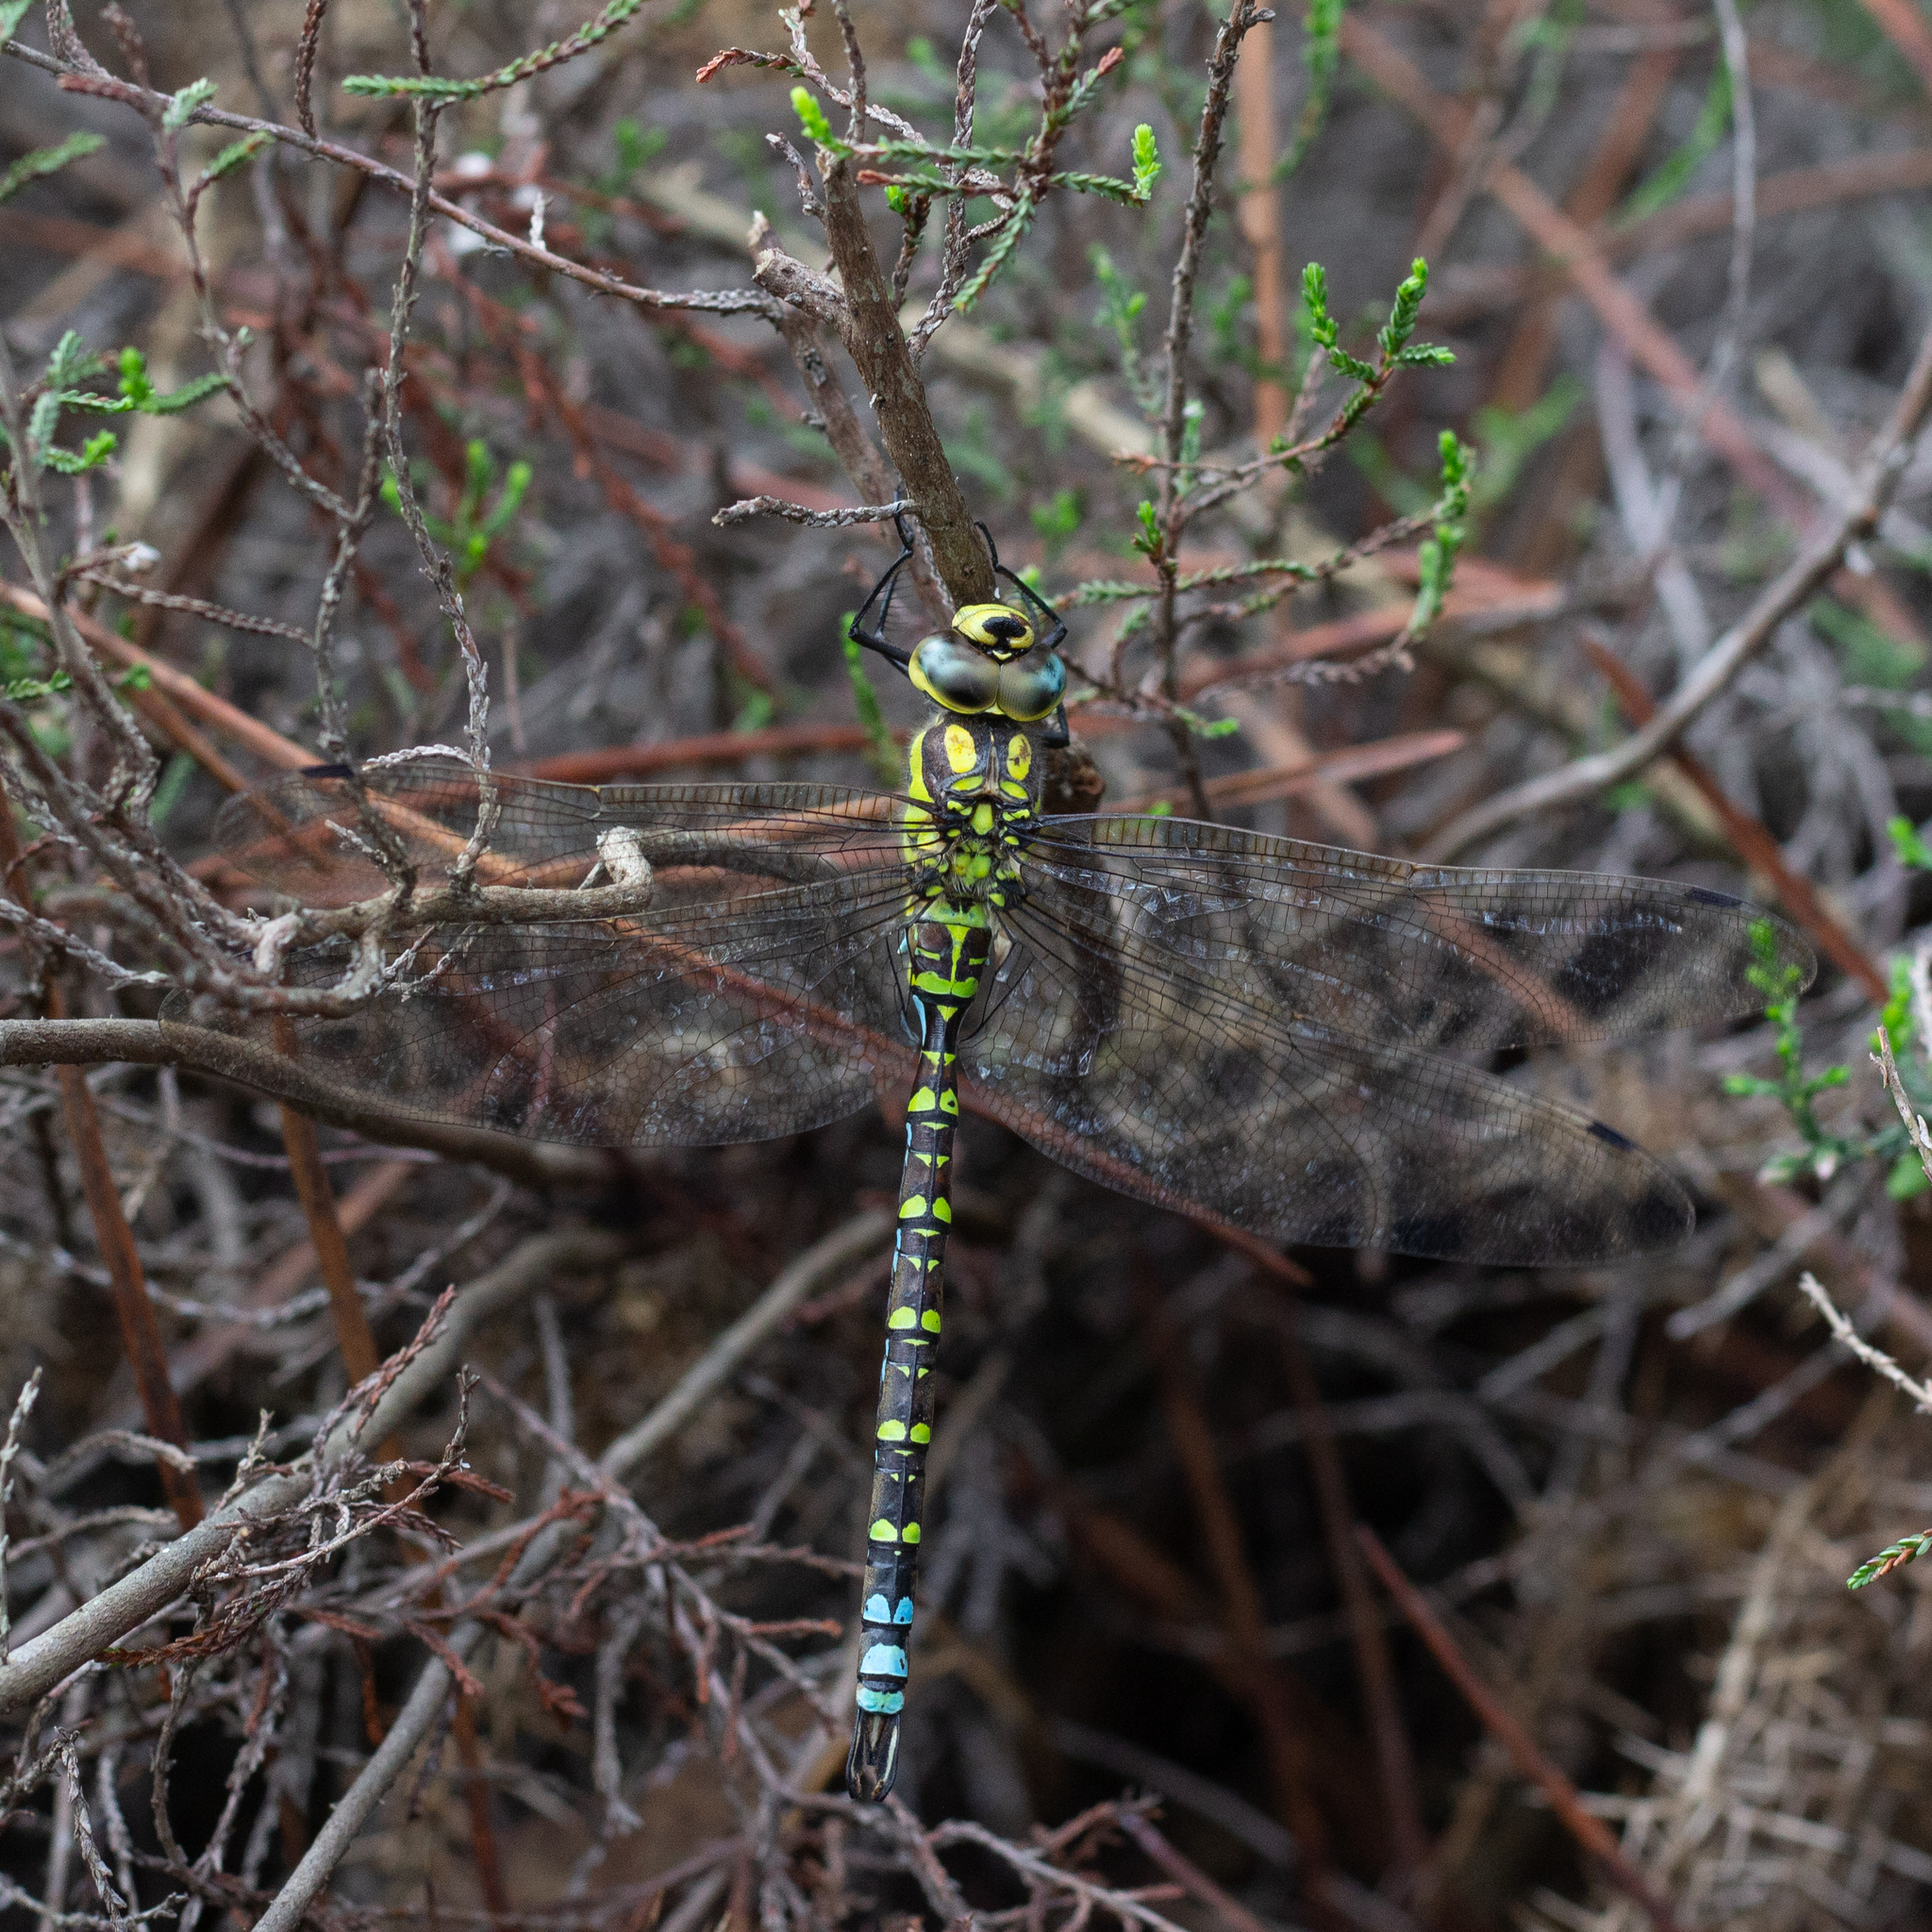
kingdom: Animalia
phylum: Arthropoda
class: Insecta
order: Odonata
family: Aeshnidae
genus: Aeshna
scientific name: Aeshna cyanea
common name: Southern hawker
